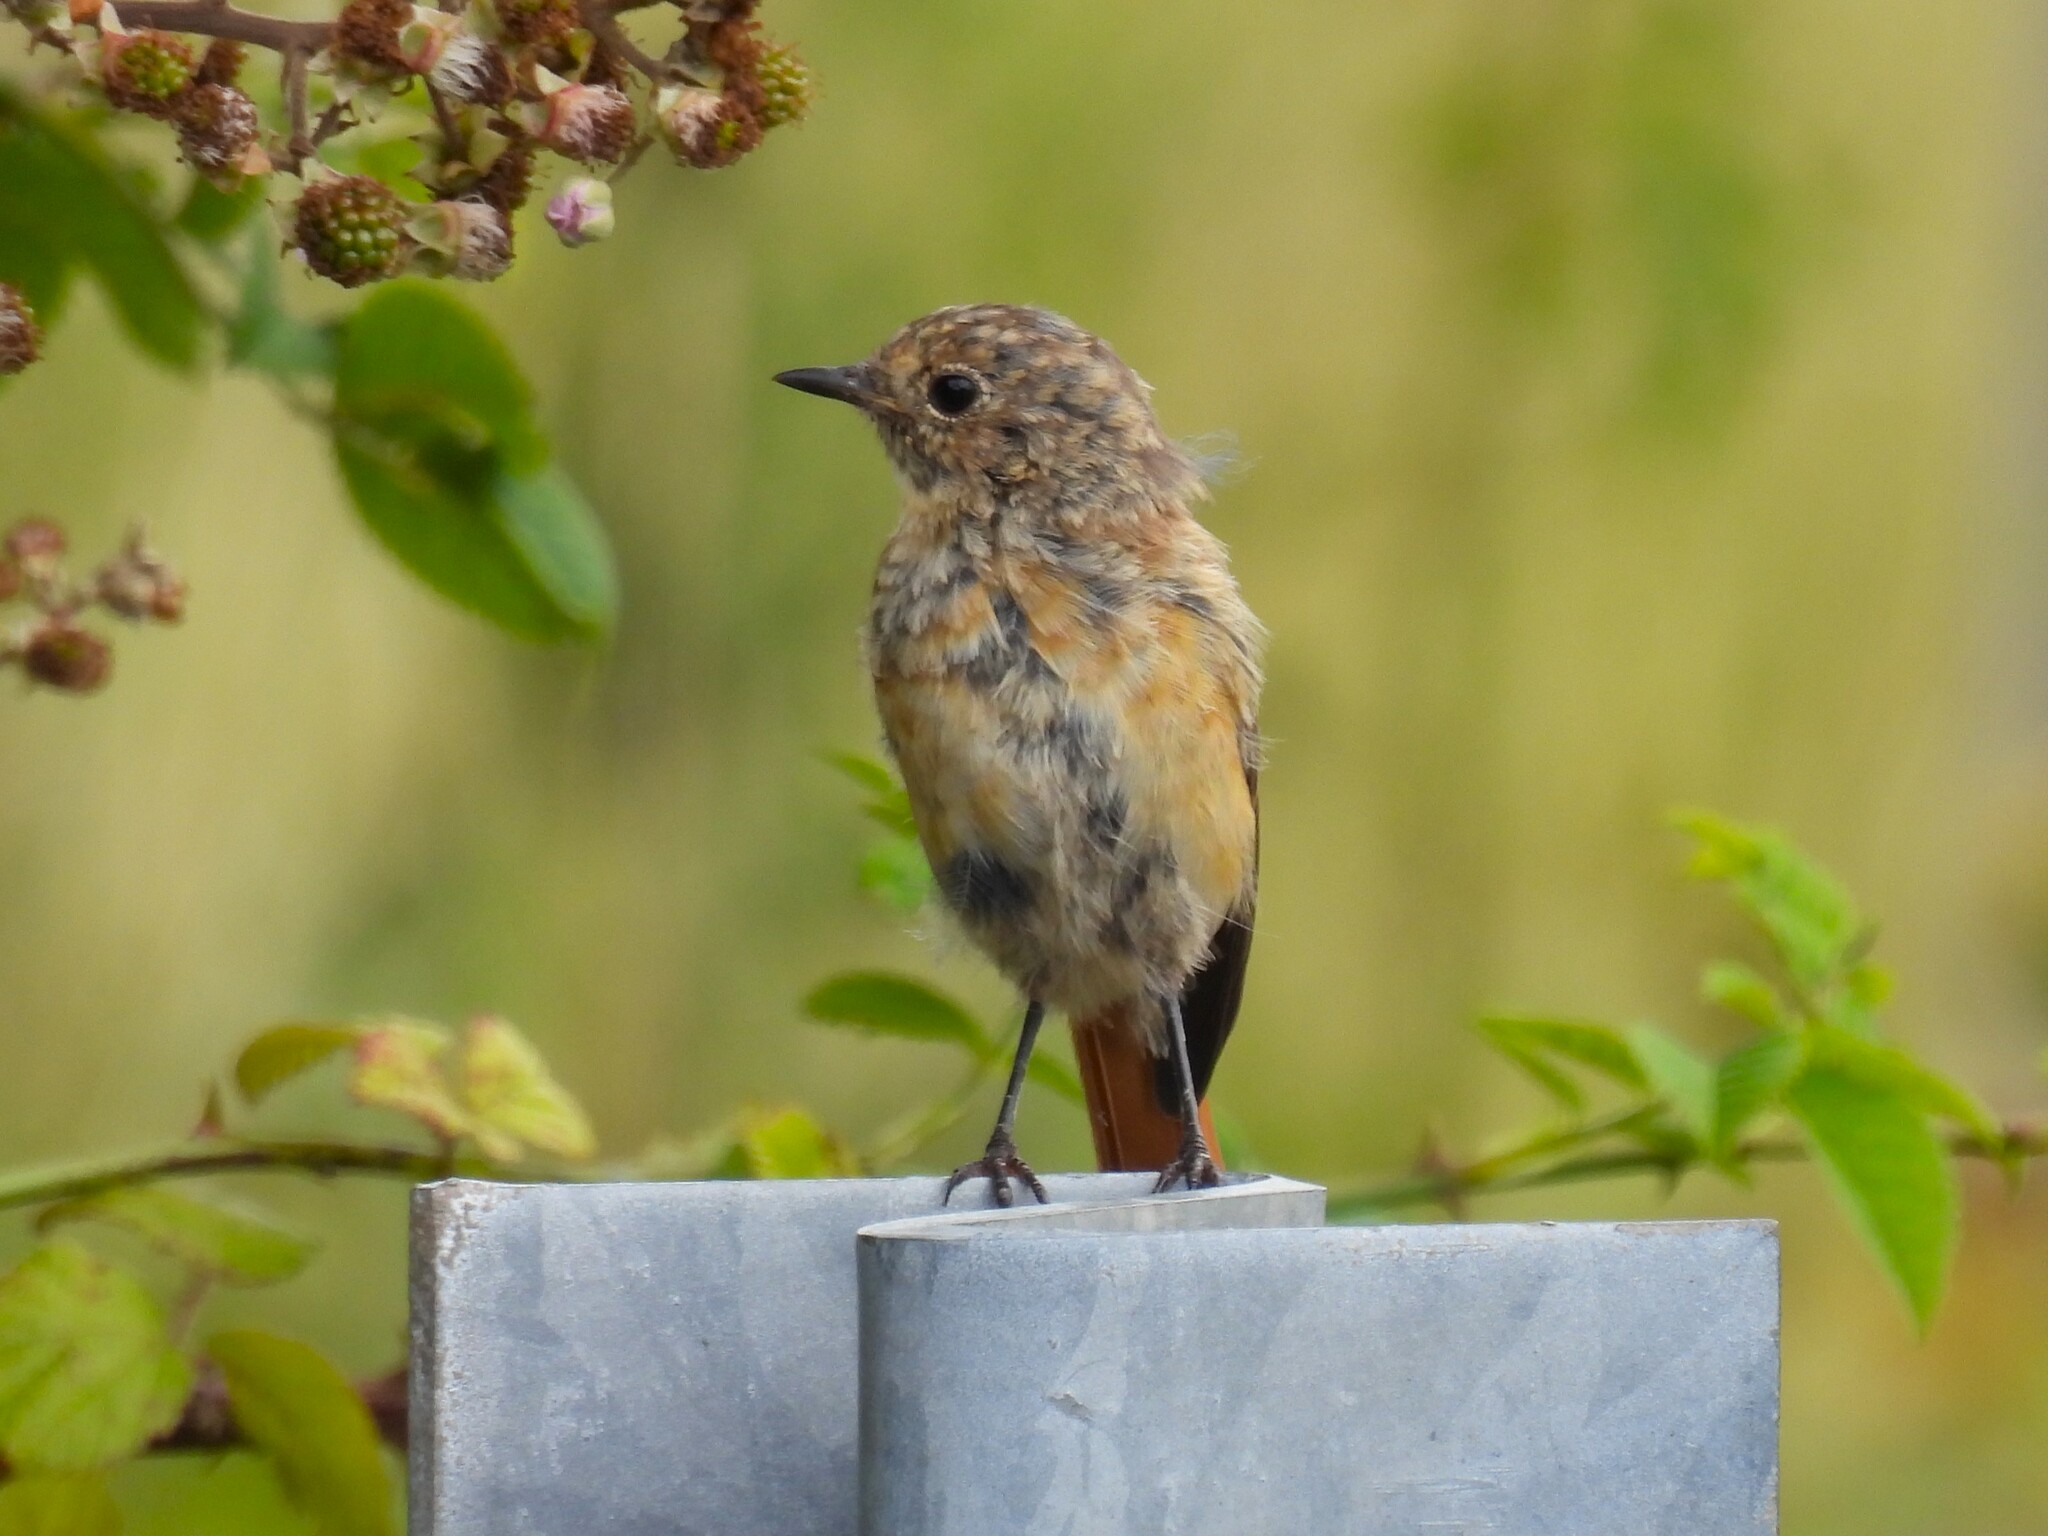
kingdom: Animalia
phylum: Chordata
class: Aves
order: Passeriformes
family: Muscicapidae
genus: Phoenicurus
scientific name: Phoenicurus phoenicurus
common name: Common redstart
